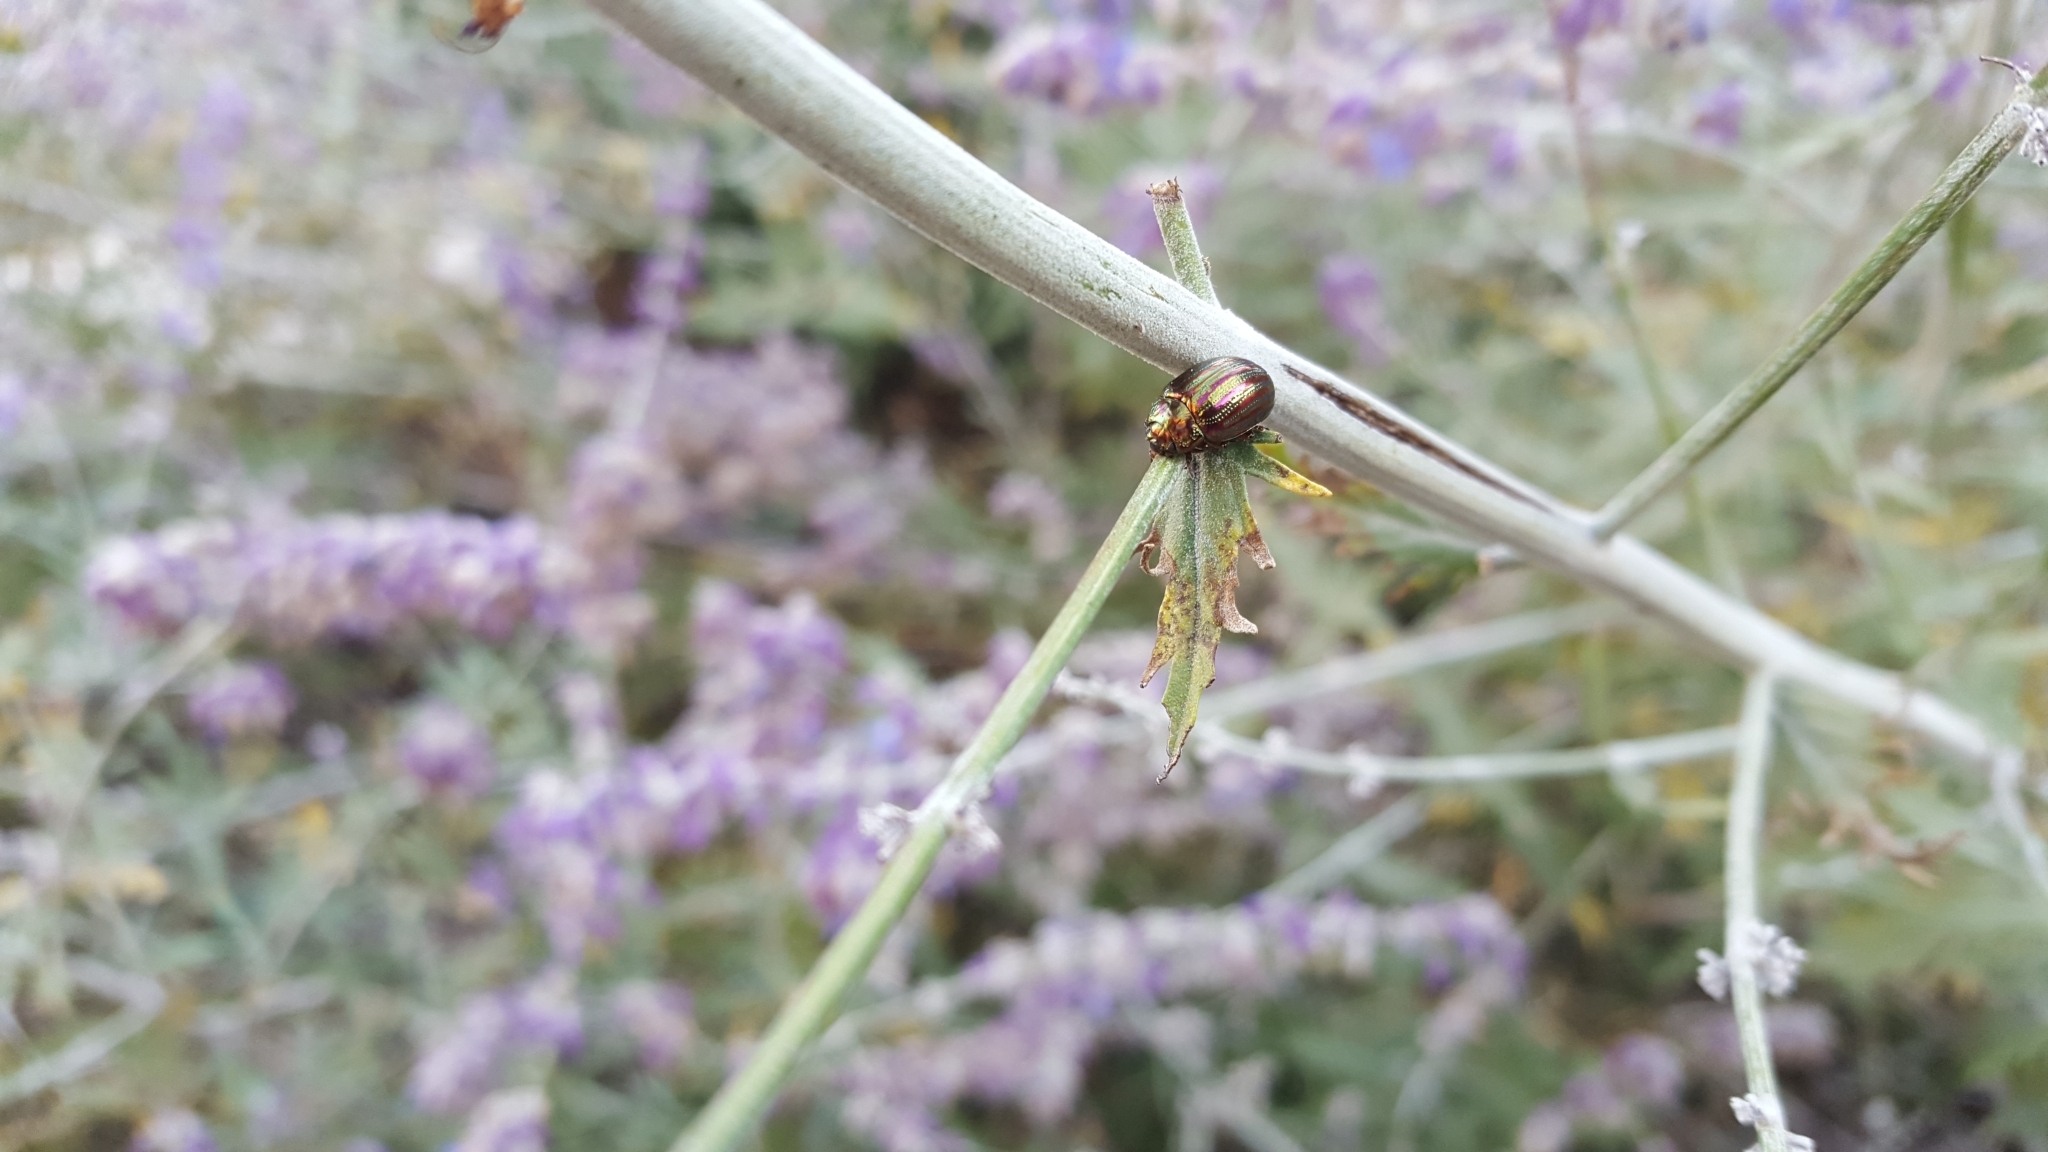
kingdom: Animalia
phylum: Arthropoda
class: Insecta
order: Coleoptera
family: Chrysomelidae
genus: Chrysolina
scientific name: Chrysolina americana
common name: Rosemary beetle
